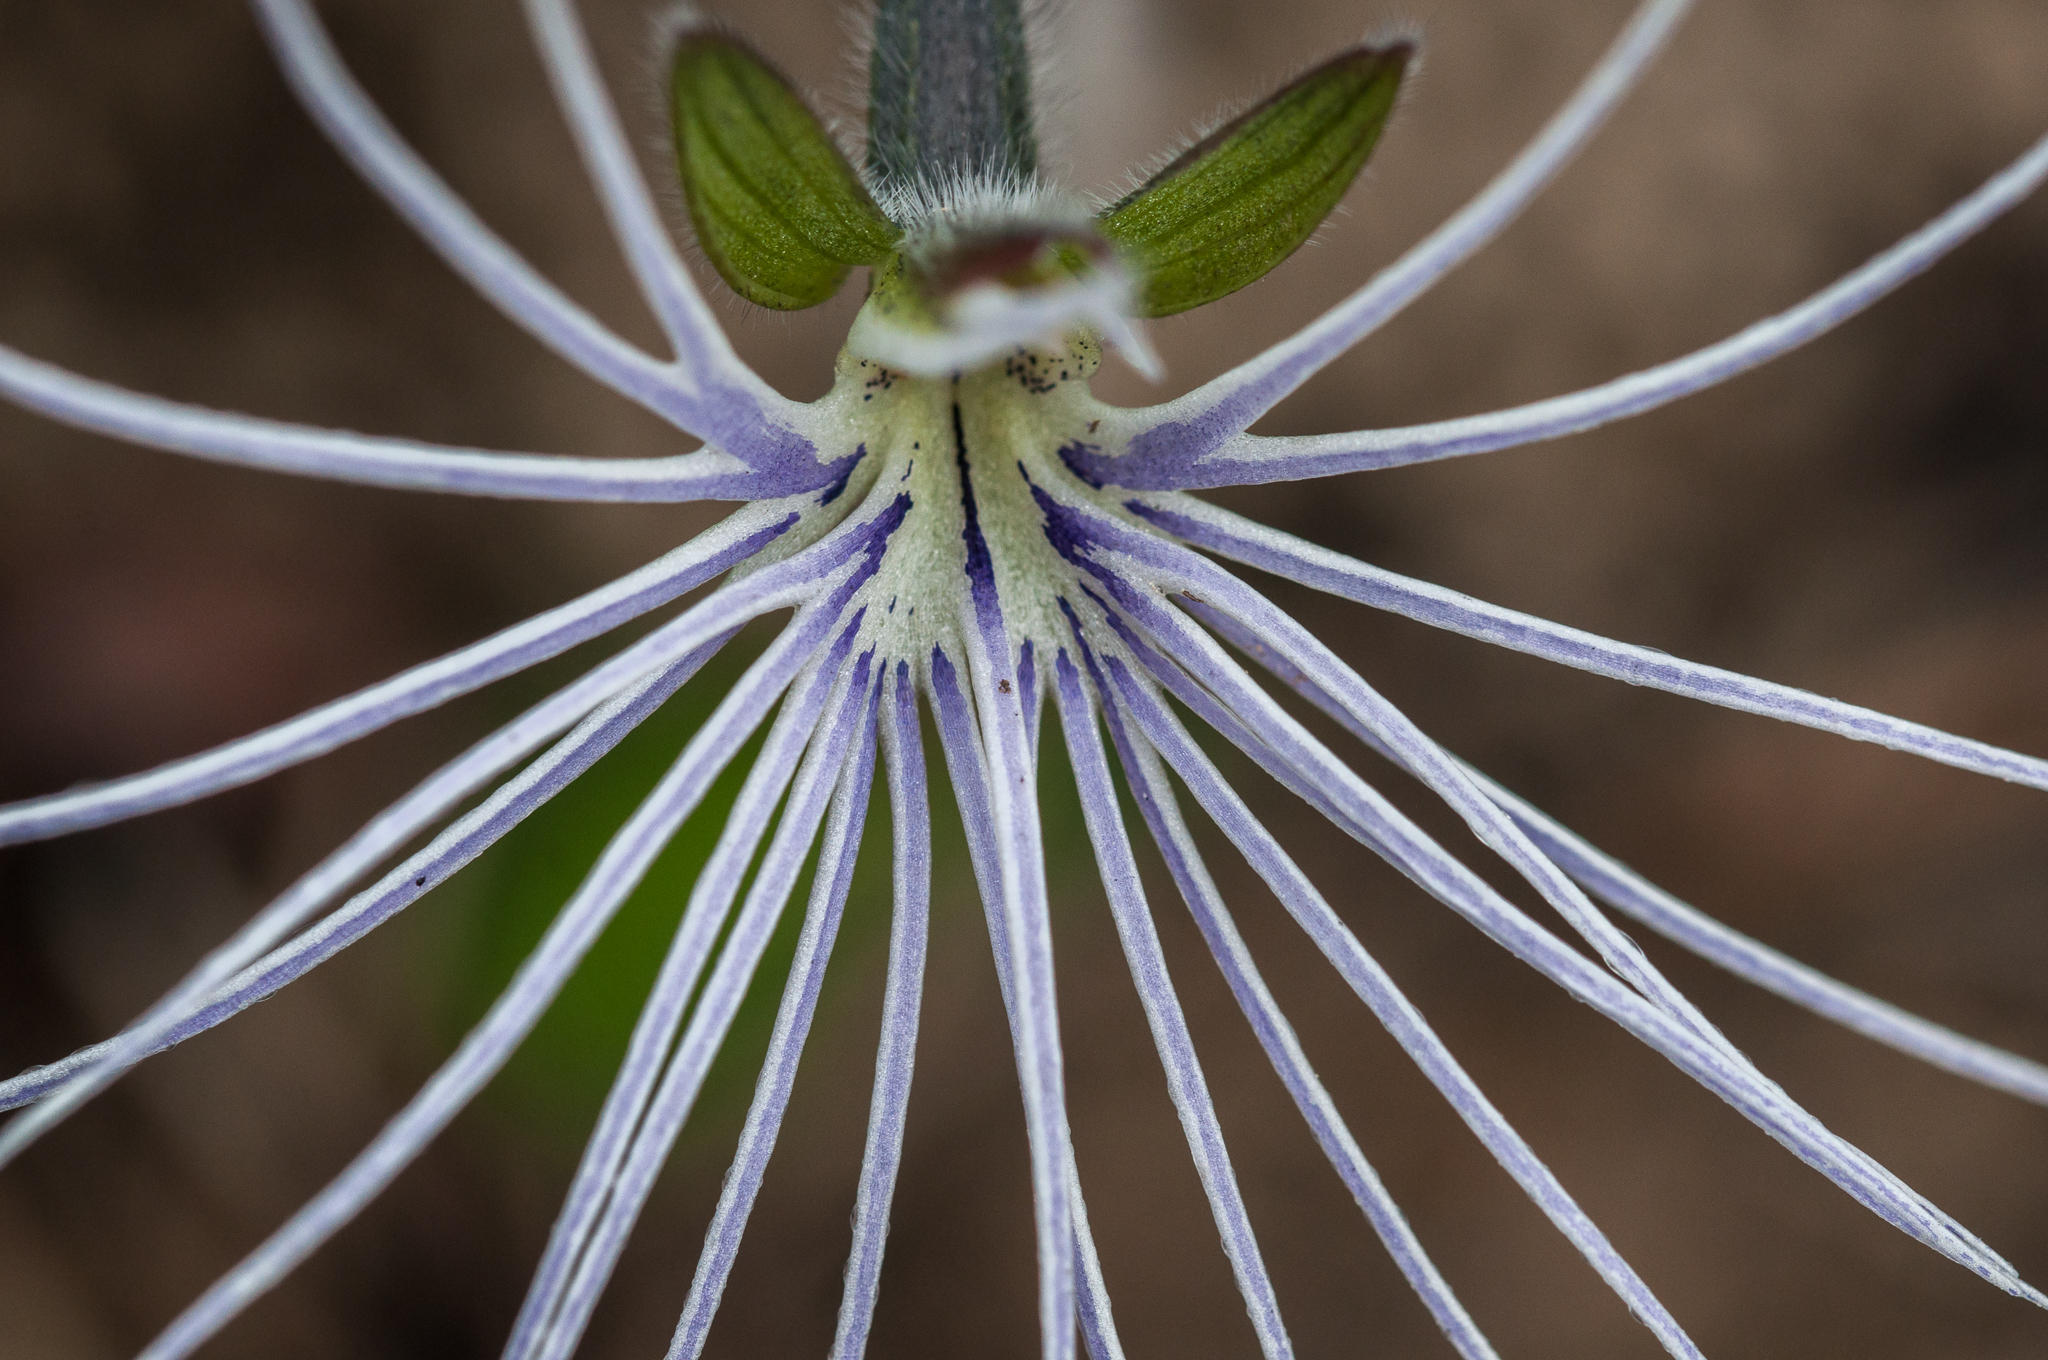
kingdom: Plantae
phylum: Tracheophyta
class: Liliopsida
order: Asparagales
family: Orchidaceae
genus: Holothrix
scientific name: Holothrix burmanniana
